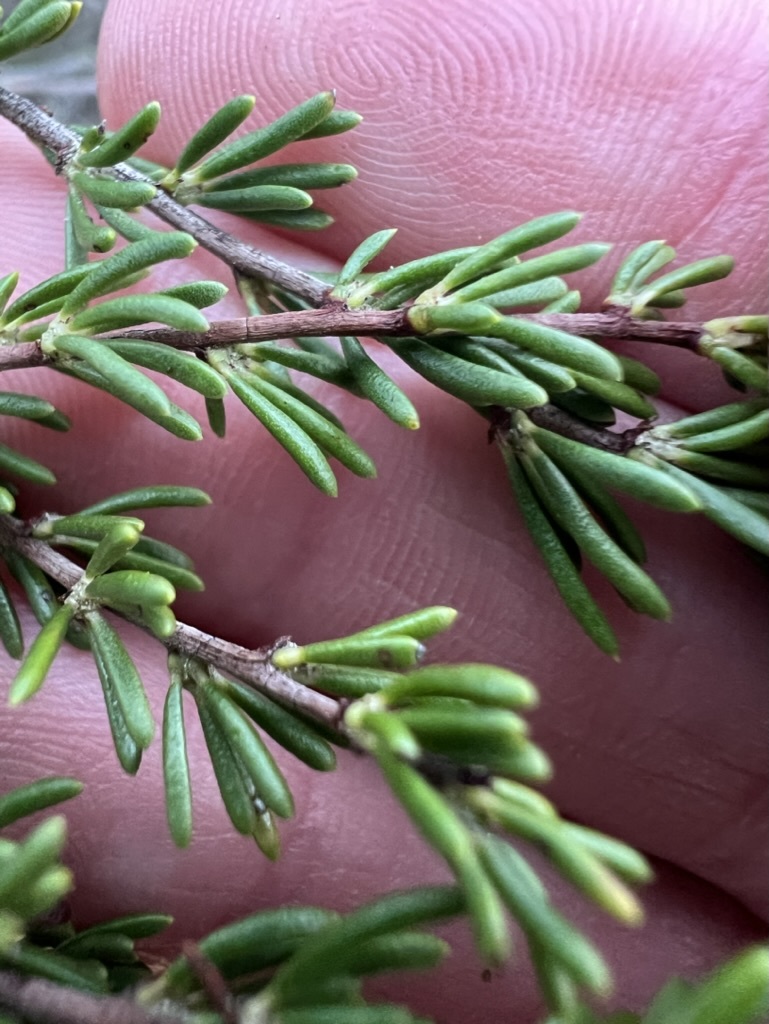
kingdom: Plantae
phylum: Tracheophyta
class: Magnoliopsida
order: Rosales
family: Rosaceae
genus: Adenostoma
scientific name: Adenostoma fasciculatum
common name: Chamise
